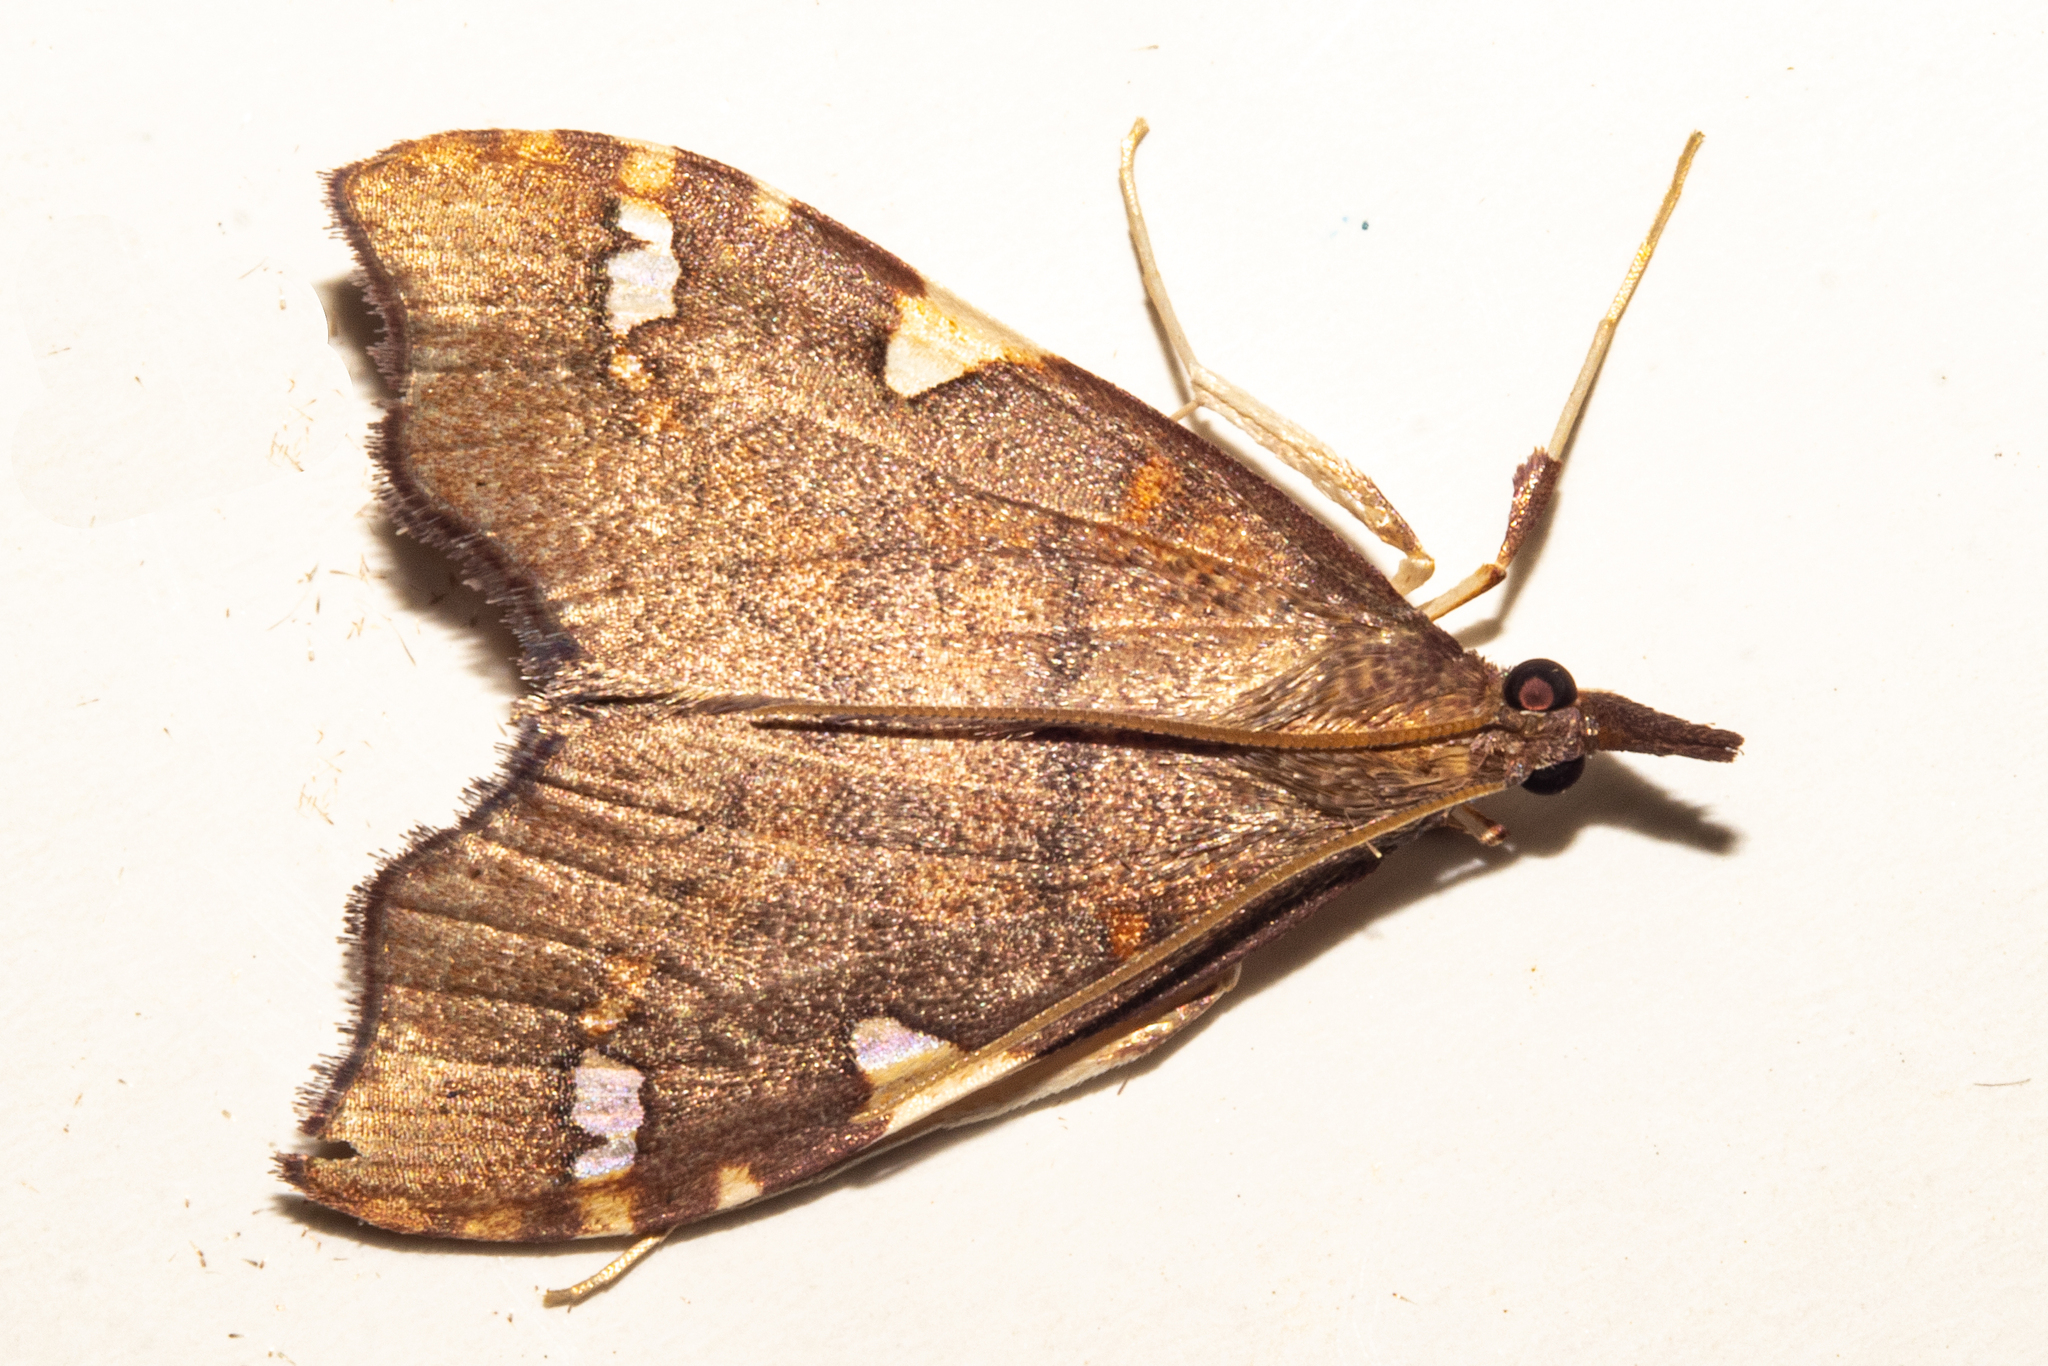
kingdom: Animalia
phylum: Arthropoda
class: Insecta
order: Lepidoptera
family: Crambidae
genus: Deana
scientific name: Deana hybreasalis
